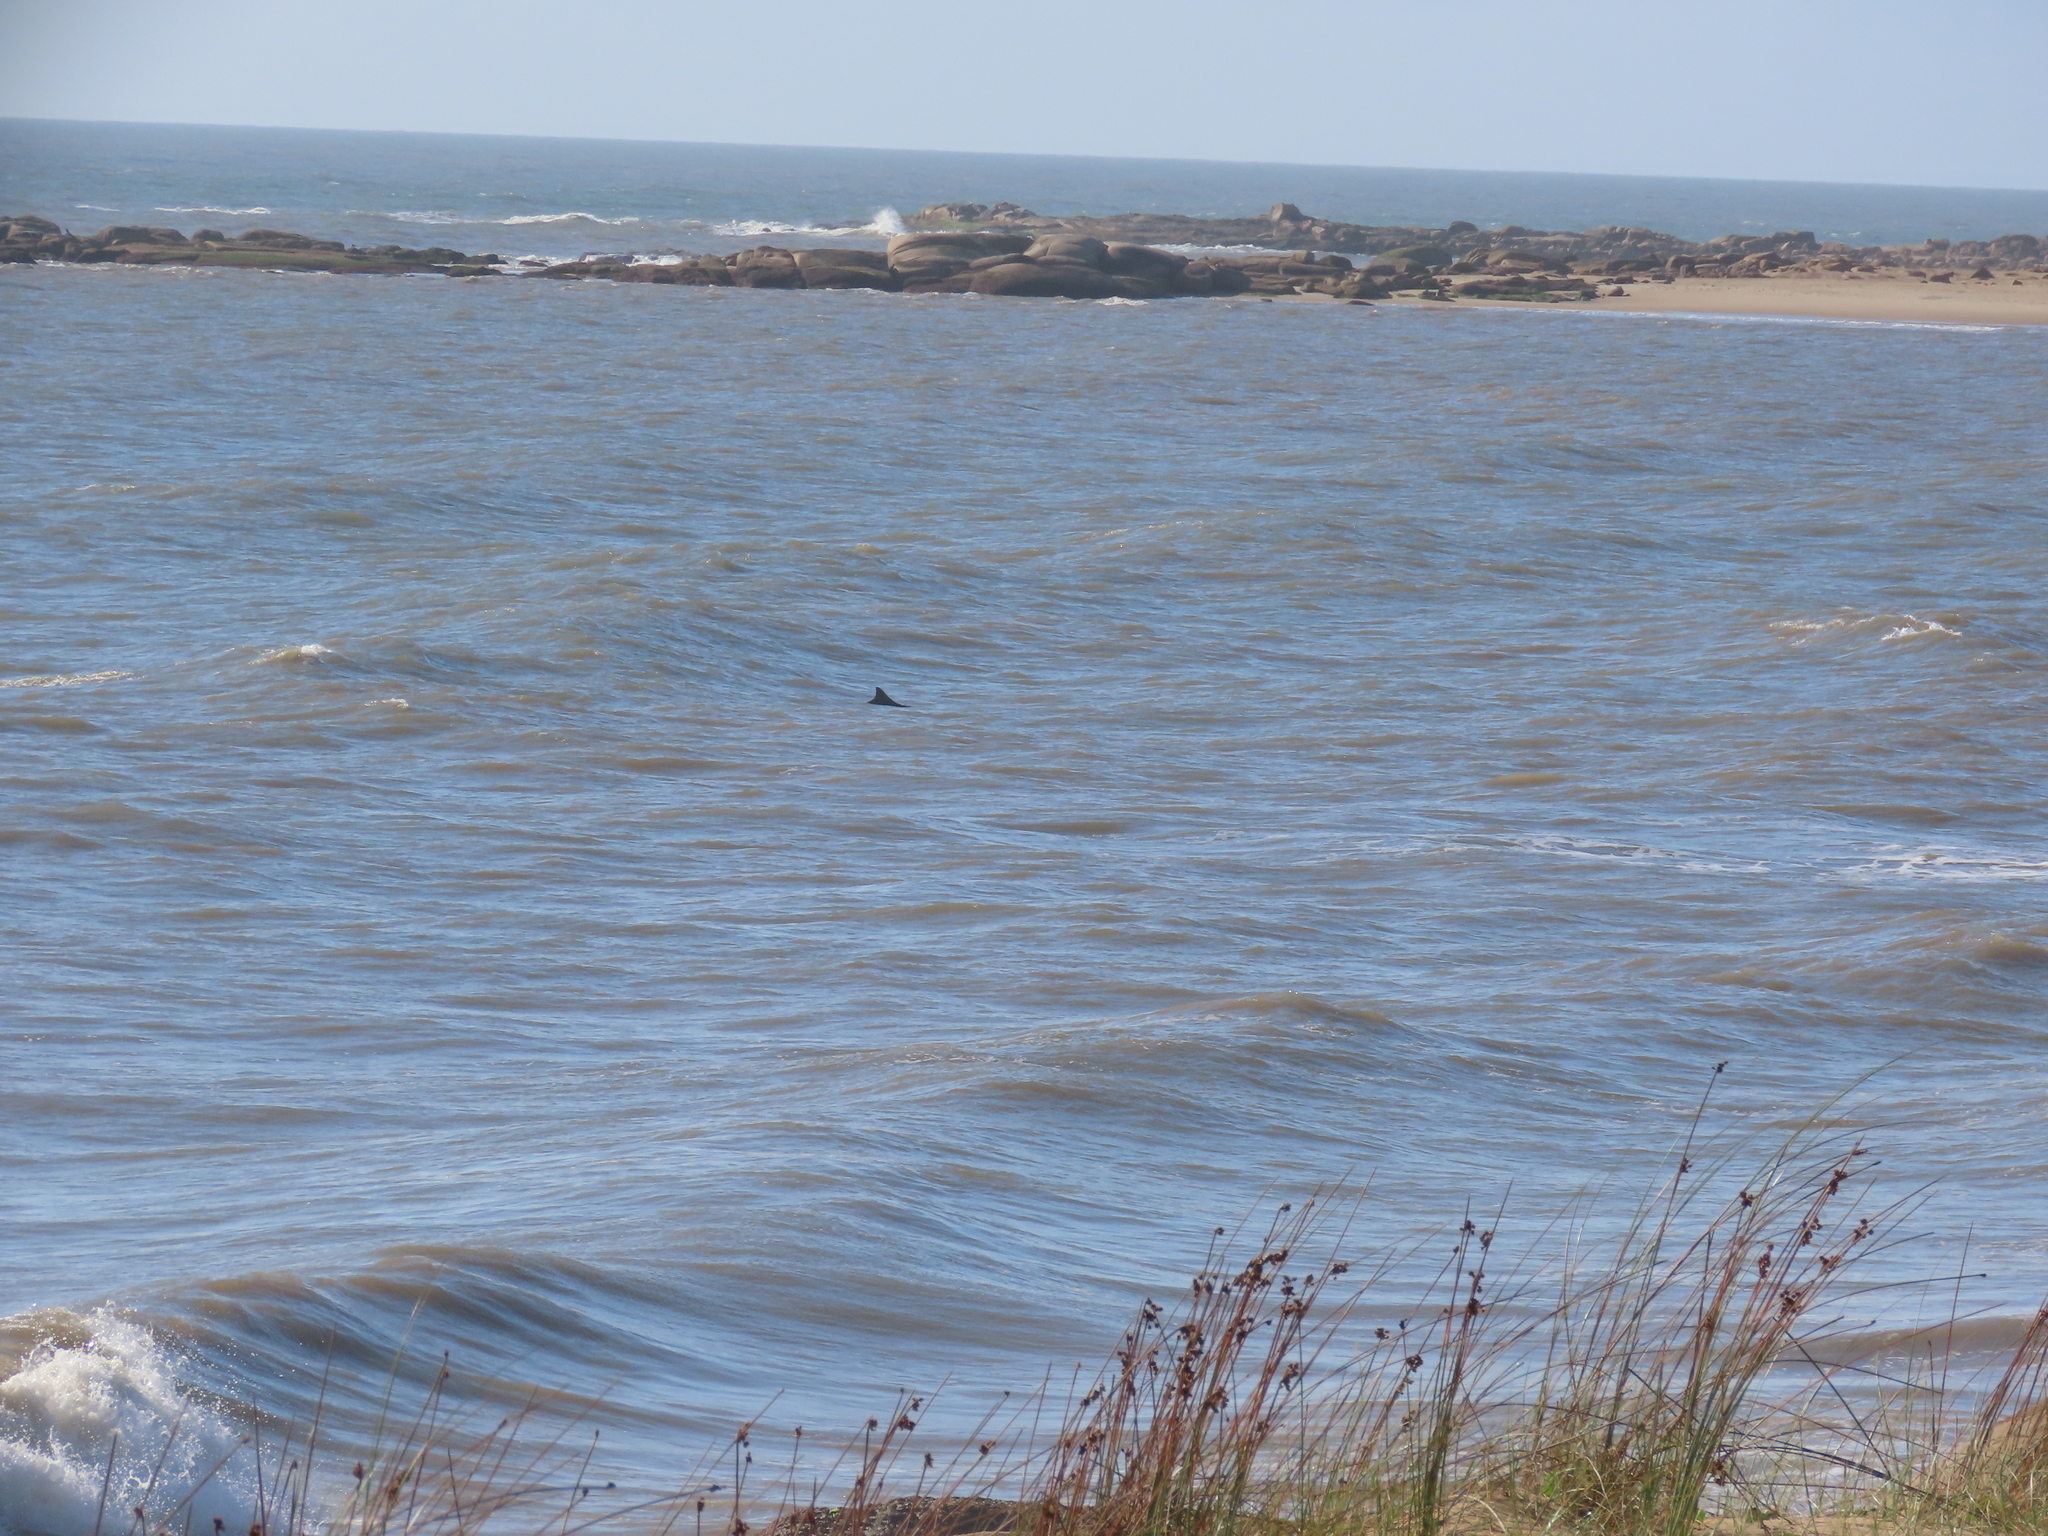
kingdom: Animalia
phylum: Chordata
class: Mammalia
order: Cetacea
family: Delphinidae
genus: Tursiops
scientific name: Tursiops truncatus
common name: Bottlenose dolphin
